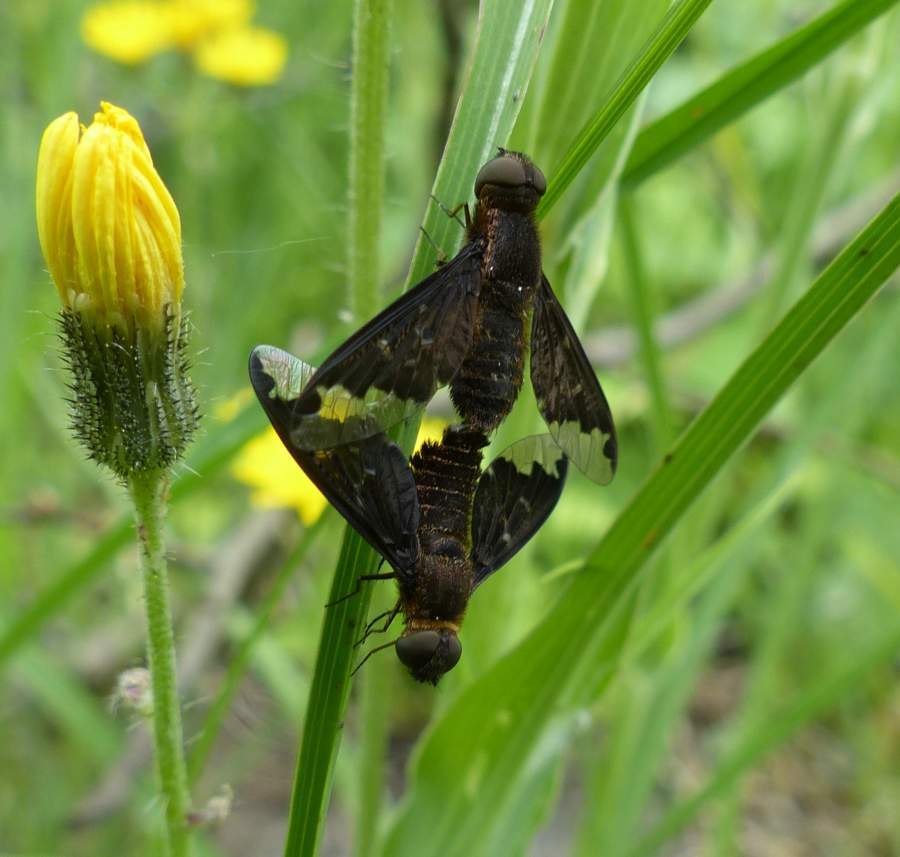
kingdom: Animalia
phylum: Arthropoda
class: Insecta
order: Diptera
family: Bombyliidae
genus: Hemipenthes
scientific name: Hemipenthes sinuosus
